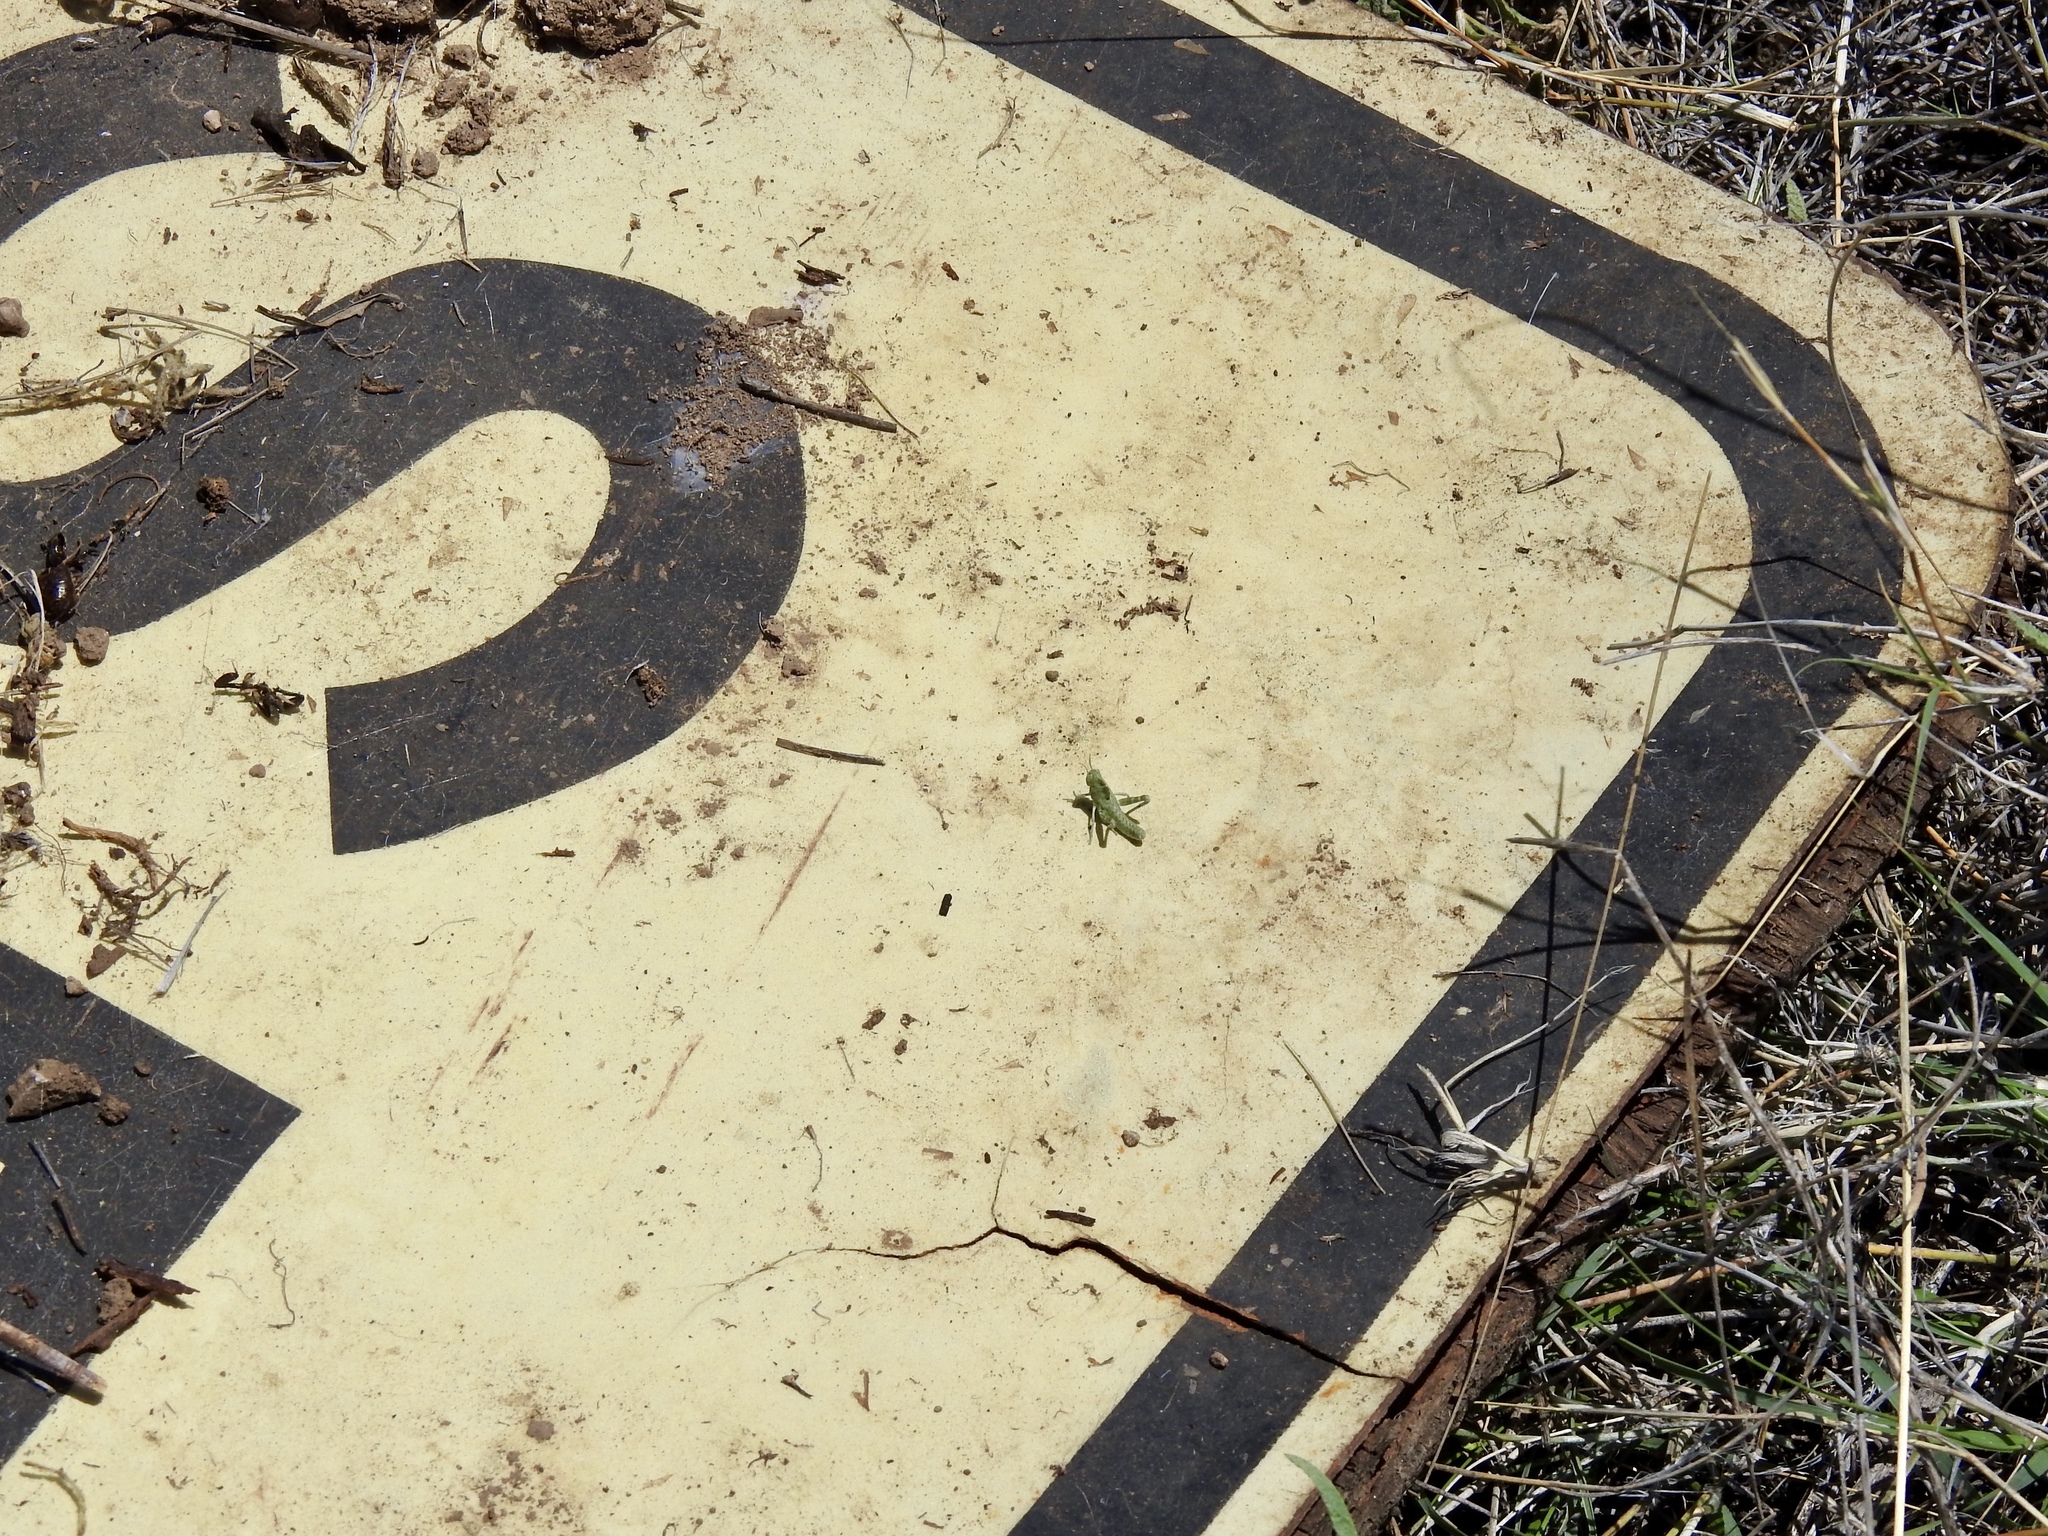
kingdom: Animalia
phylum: Arthropoda
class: Insecta
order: Orthoptera
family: Acrididae
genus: Tropidolophus
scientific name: Tropidolophus formosus
